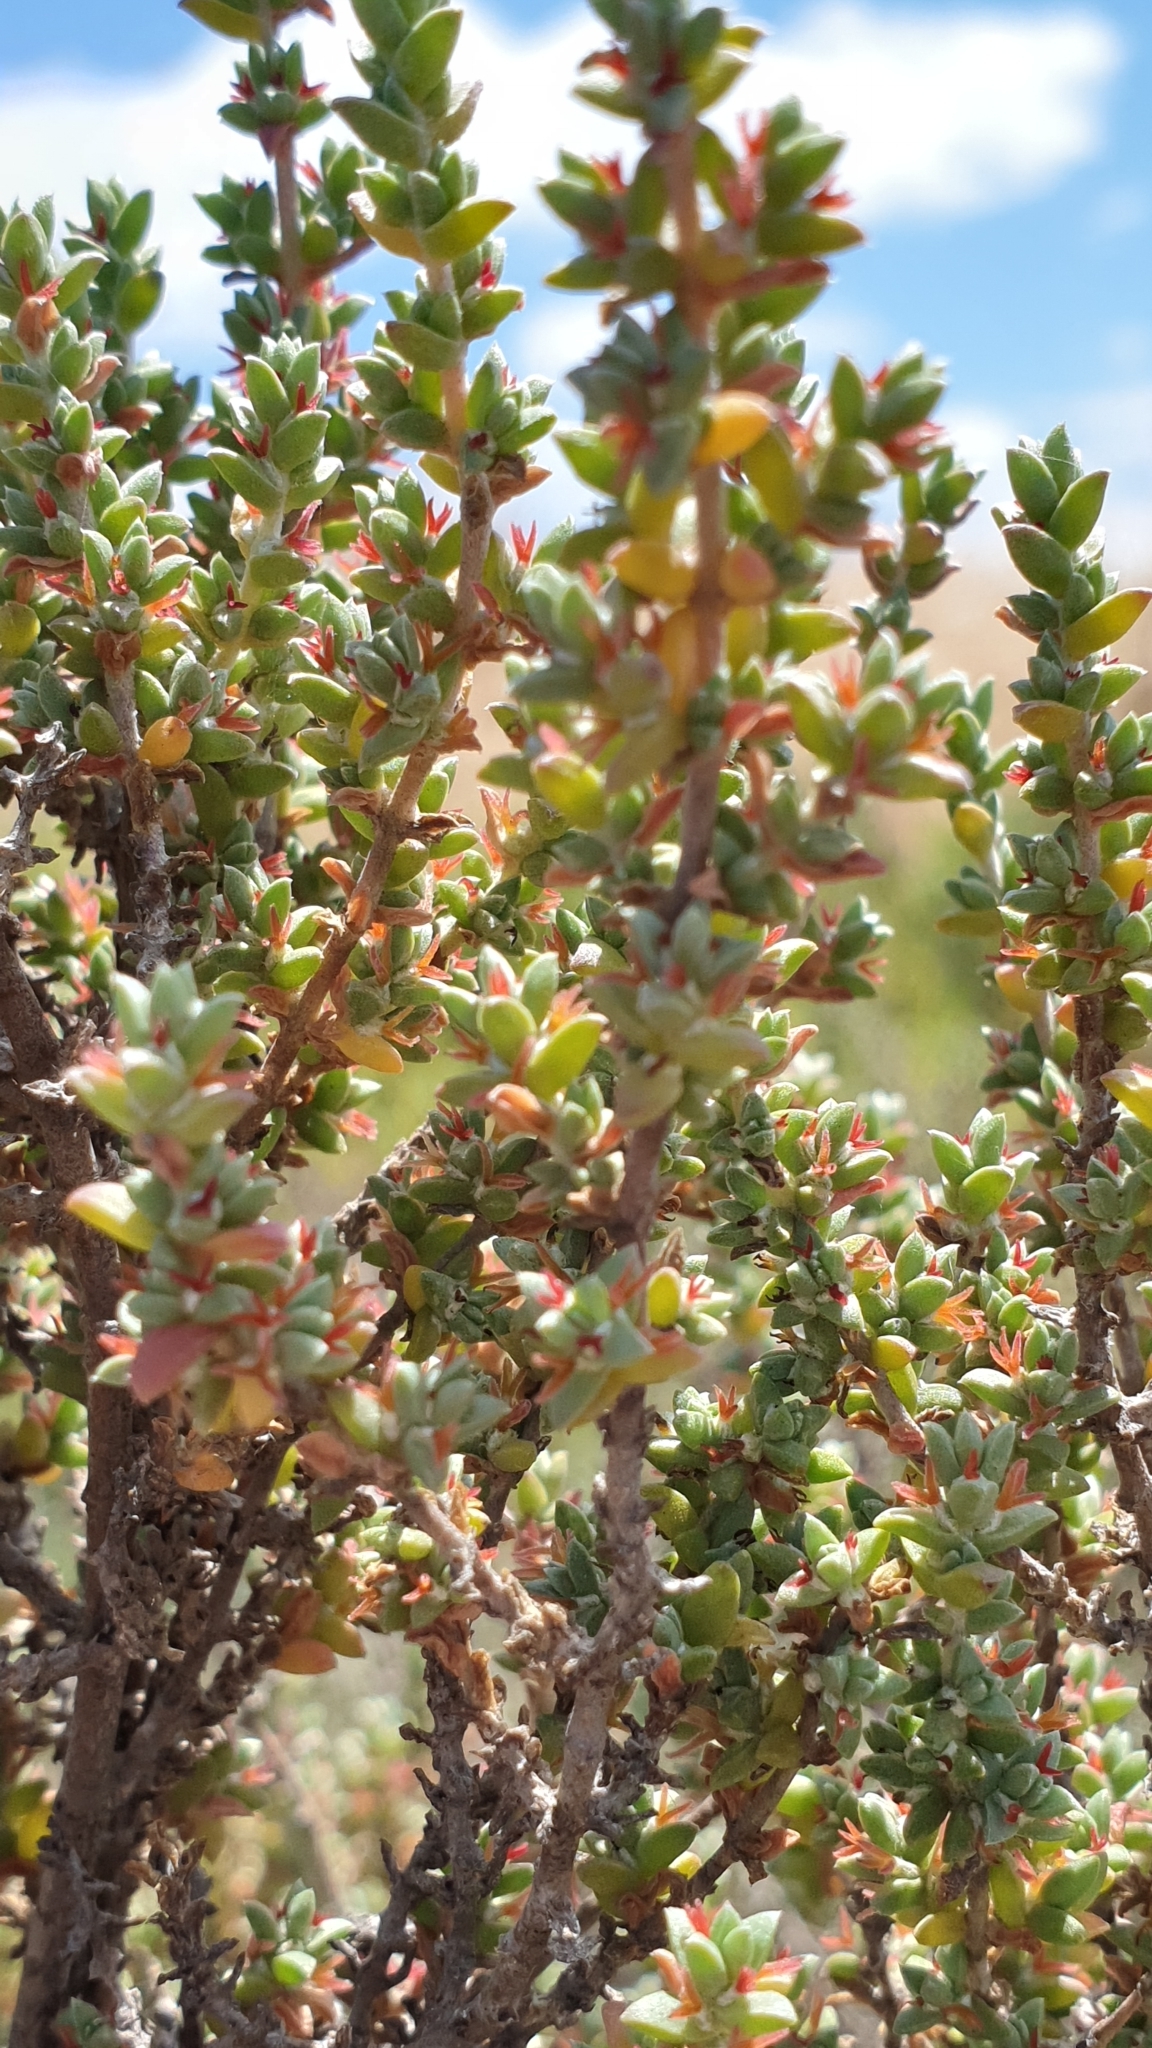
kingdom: Plantae
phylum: Tracheophyta
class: Magnoliopsida
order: Caryophyllales
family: Amaranthaceae
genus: Maireana
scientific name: Maireana oppositifolia
